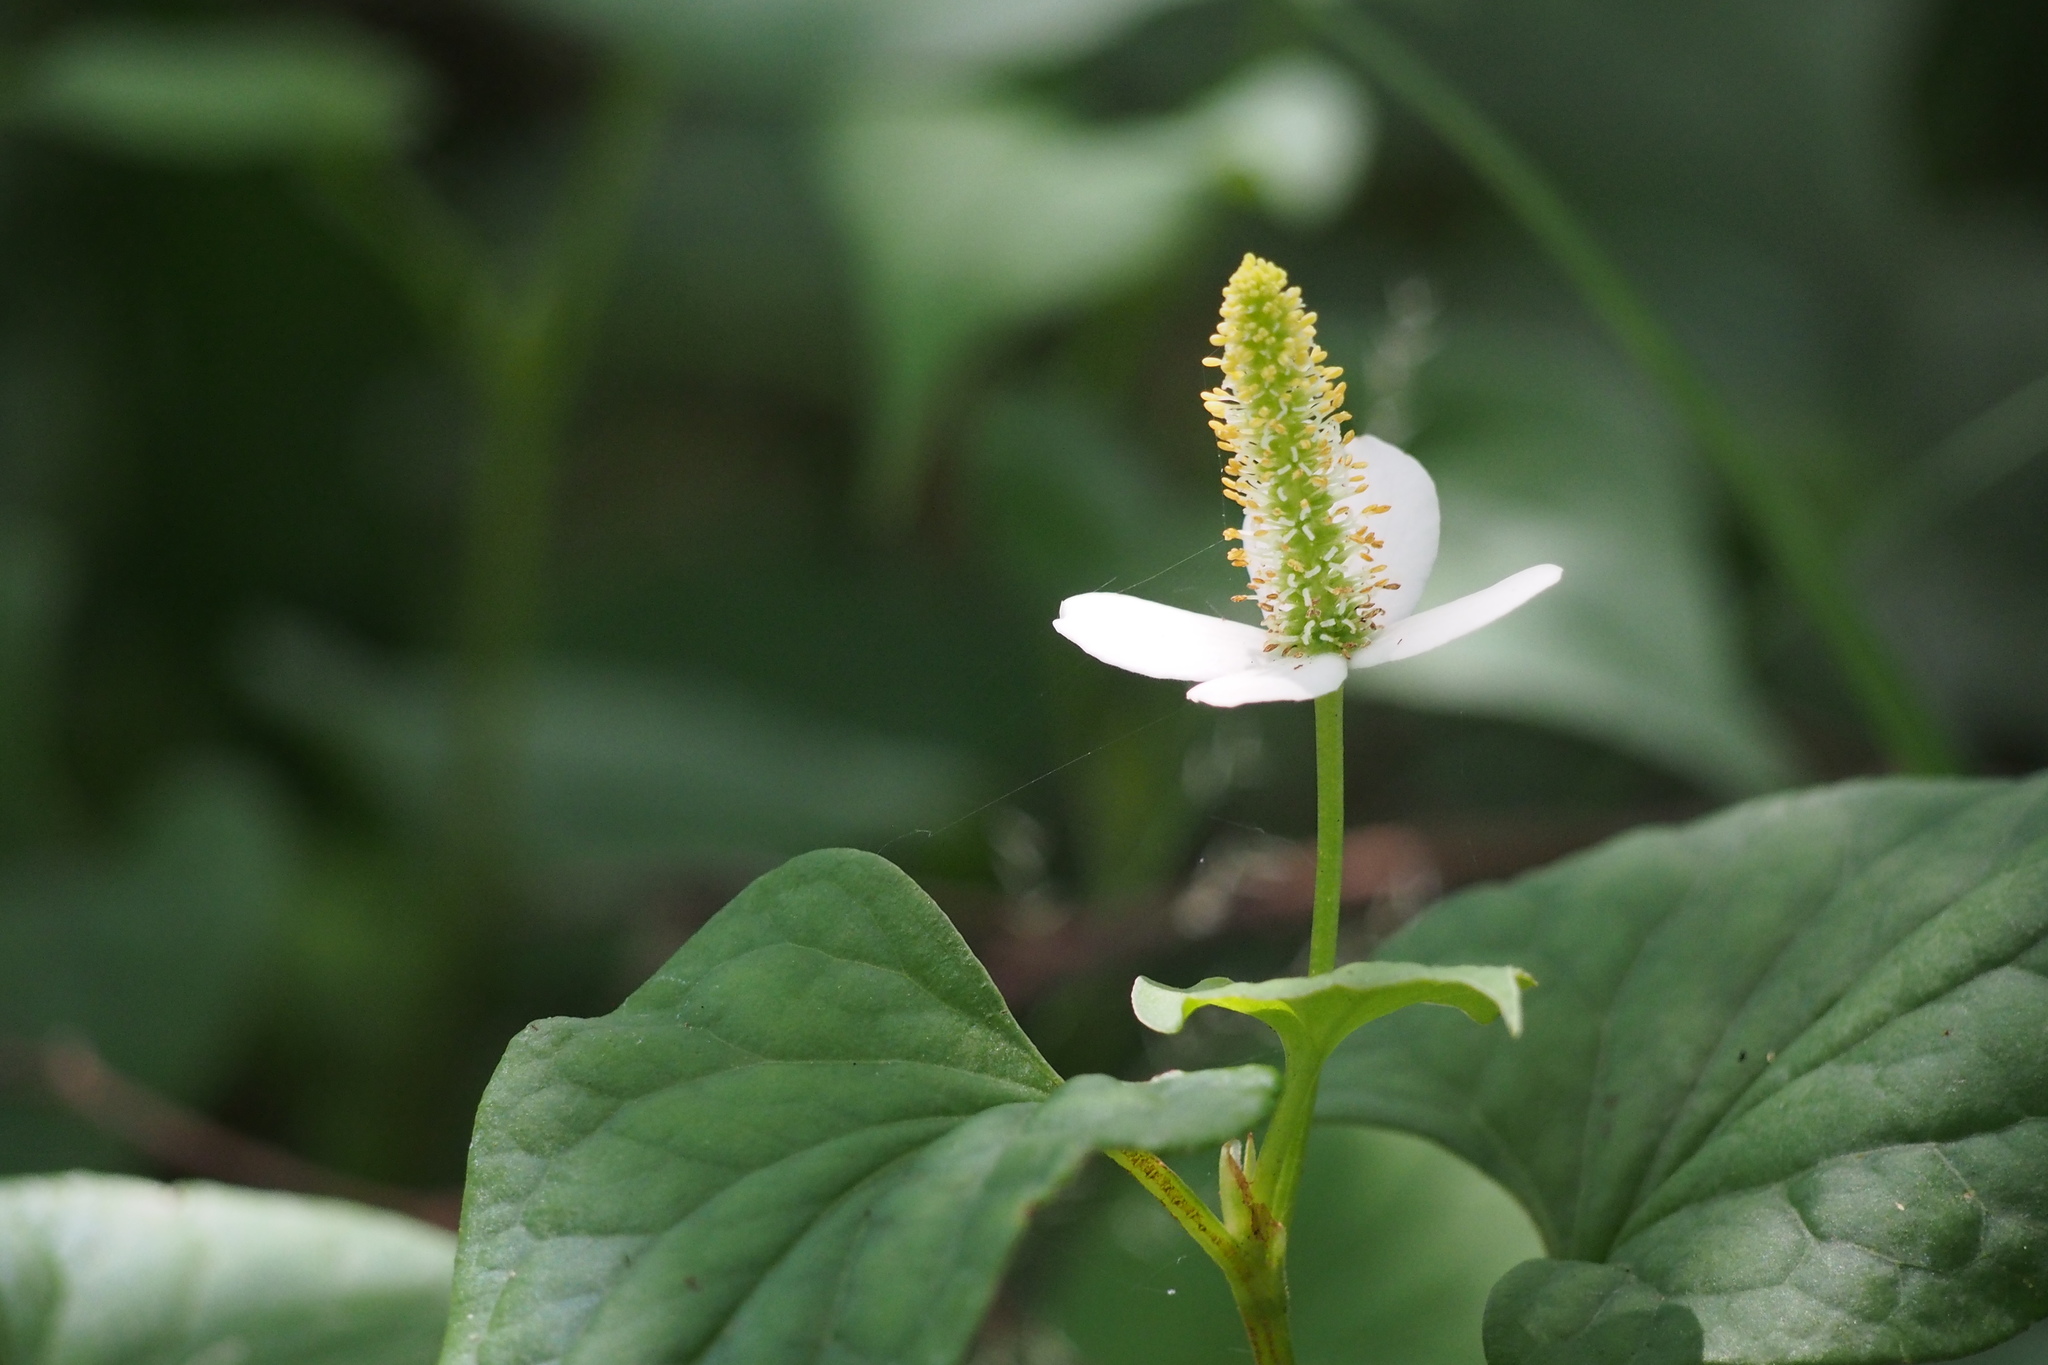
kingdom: Plantae
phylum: Tracheophyta
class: Magnoliopsida
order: Piperales
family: Saururaceae
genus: Houttuynia
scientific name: Houttuynia cordata
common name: Chameleon
